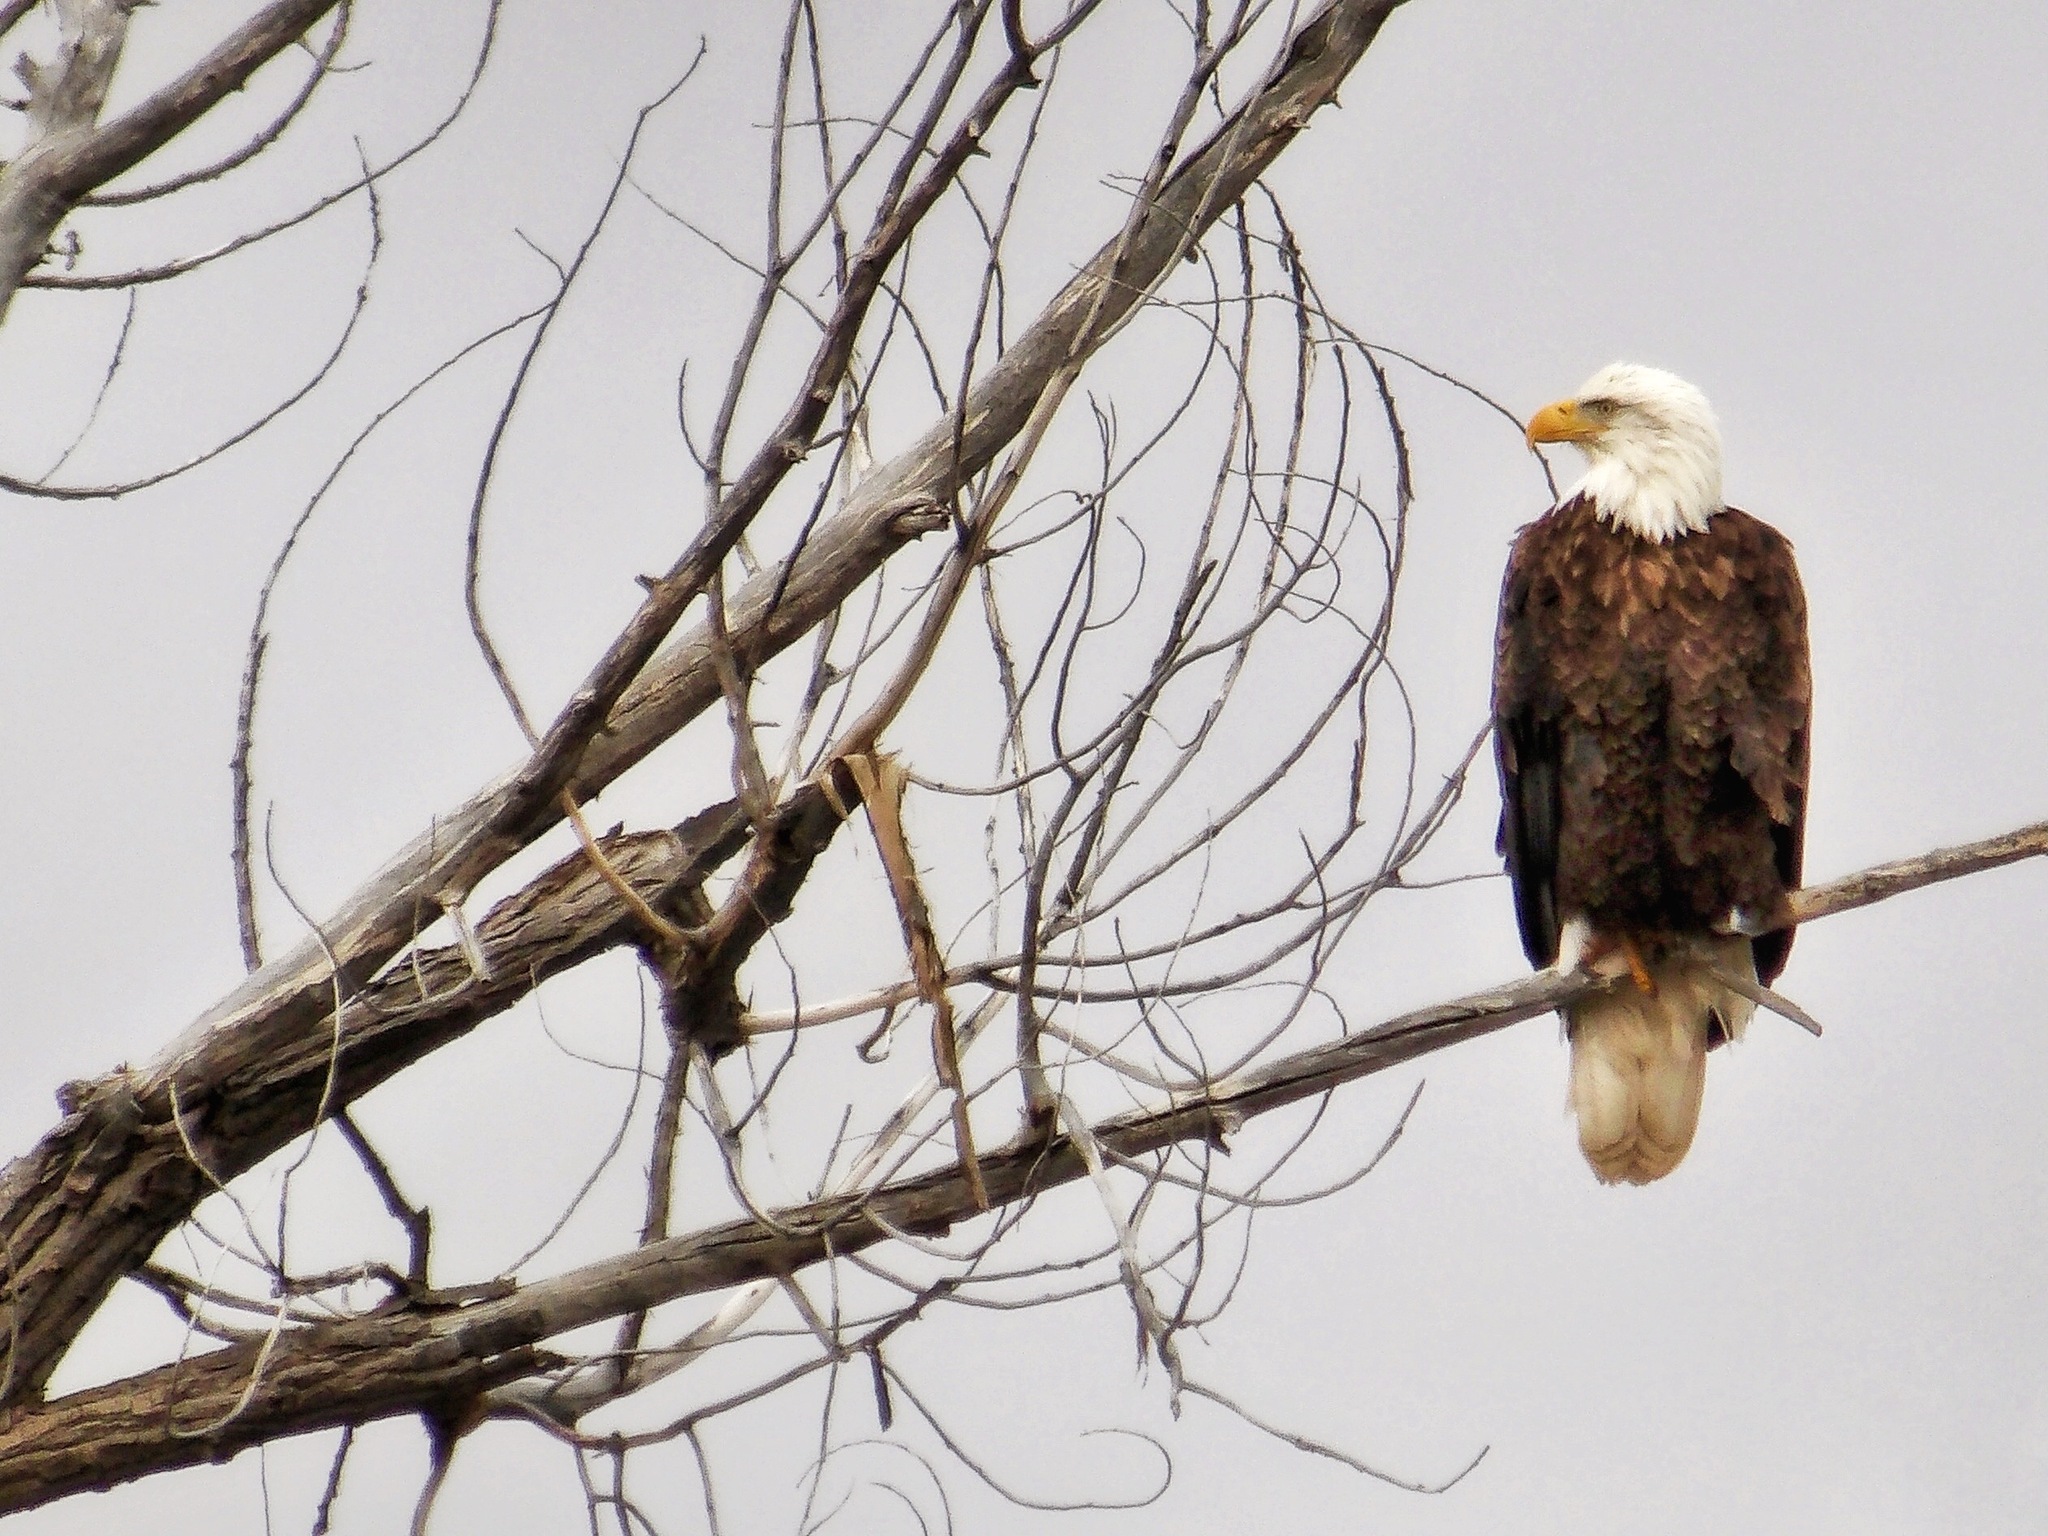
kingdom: Animalia
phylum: Chordata
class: Aves
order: Accipitriformes
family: Accipitridae
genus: Haliaeetus
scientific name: Haliaeetus leucocephalus
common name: Bald eagle
